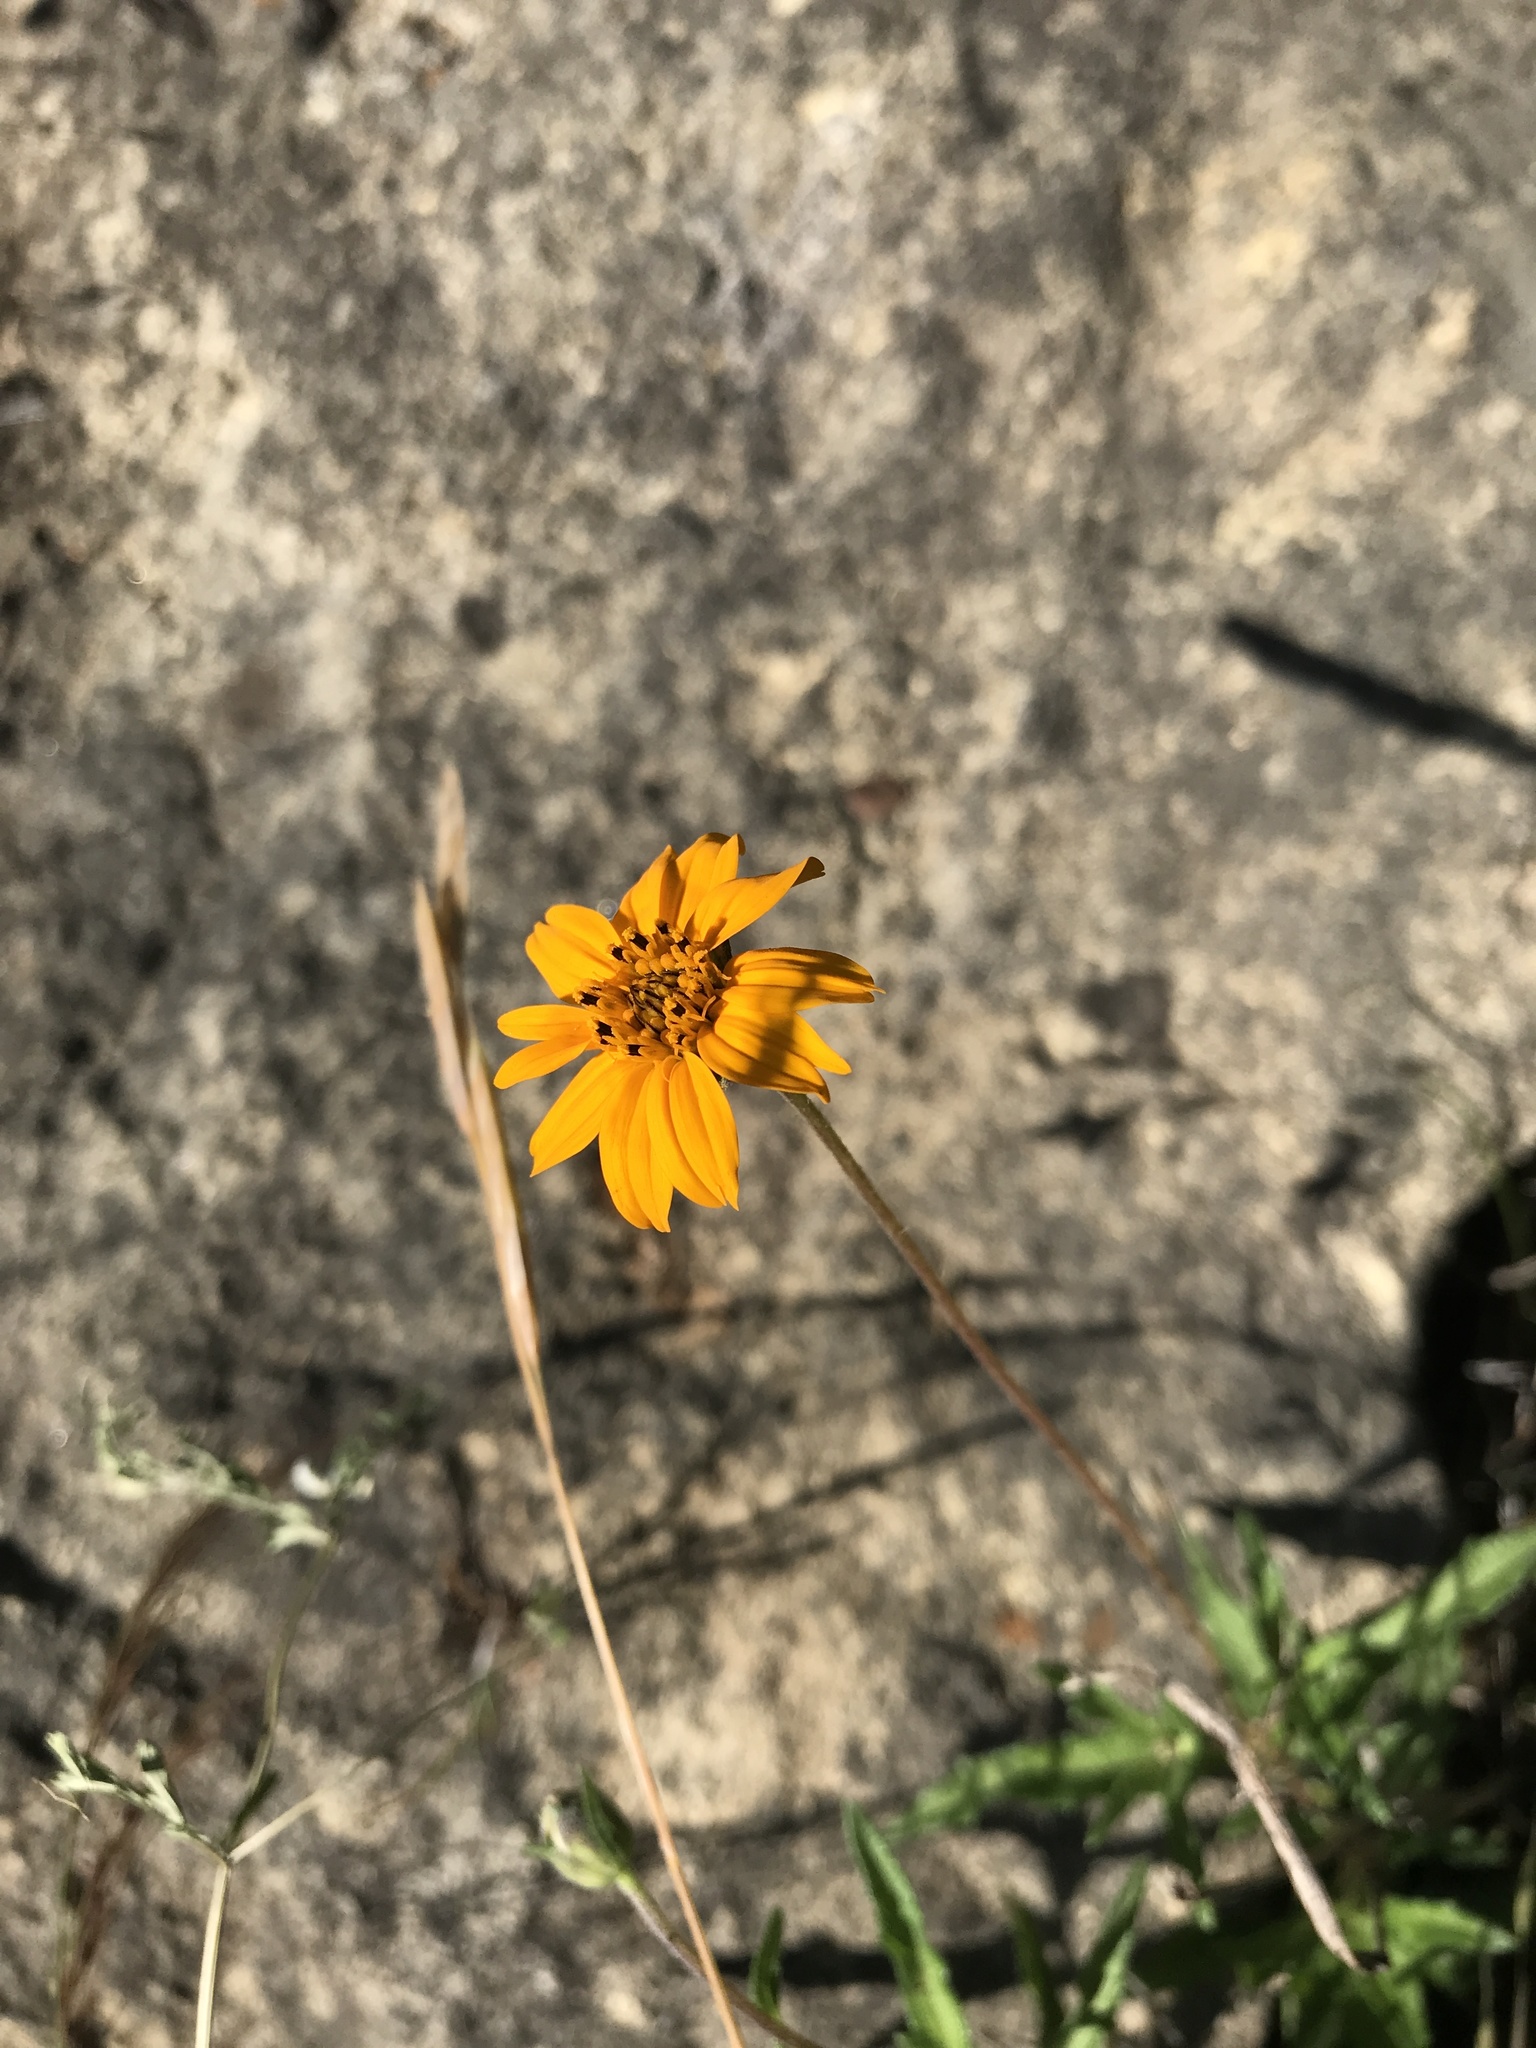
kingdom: Plantae
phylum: Tracheophyta
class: Magnoliopsida
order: Asterales
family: Asteraceae
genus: Wedelia
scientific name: Wedelia acapulcensis
